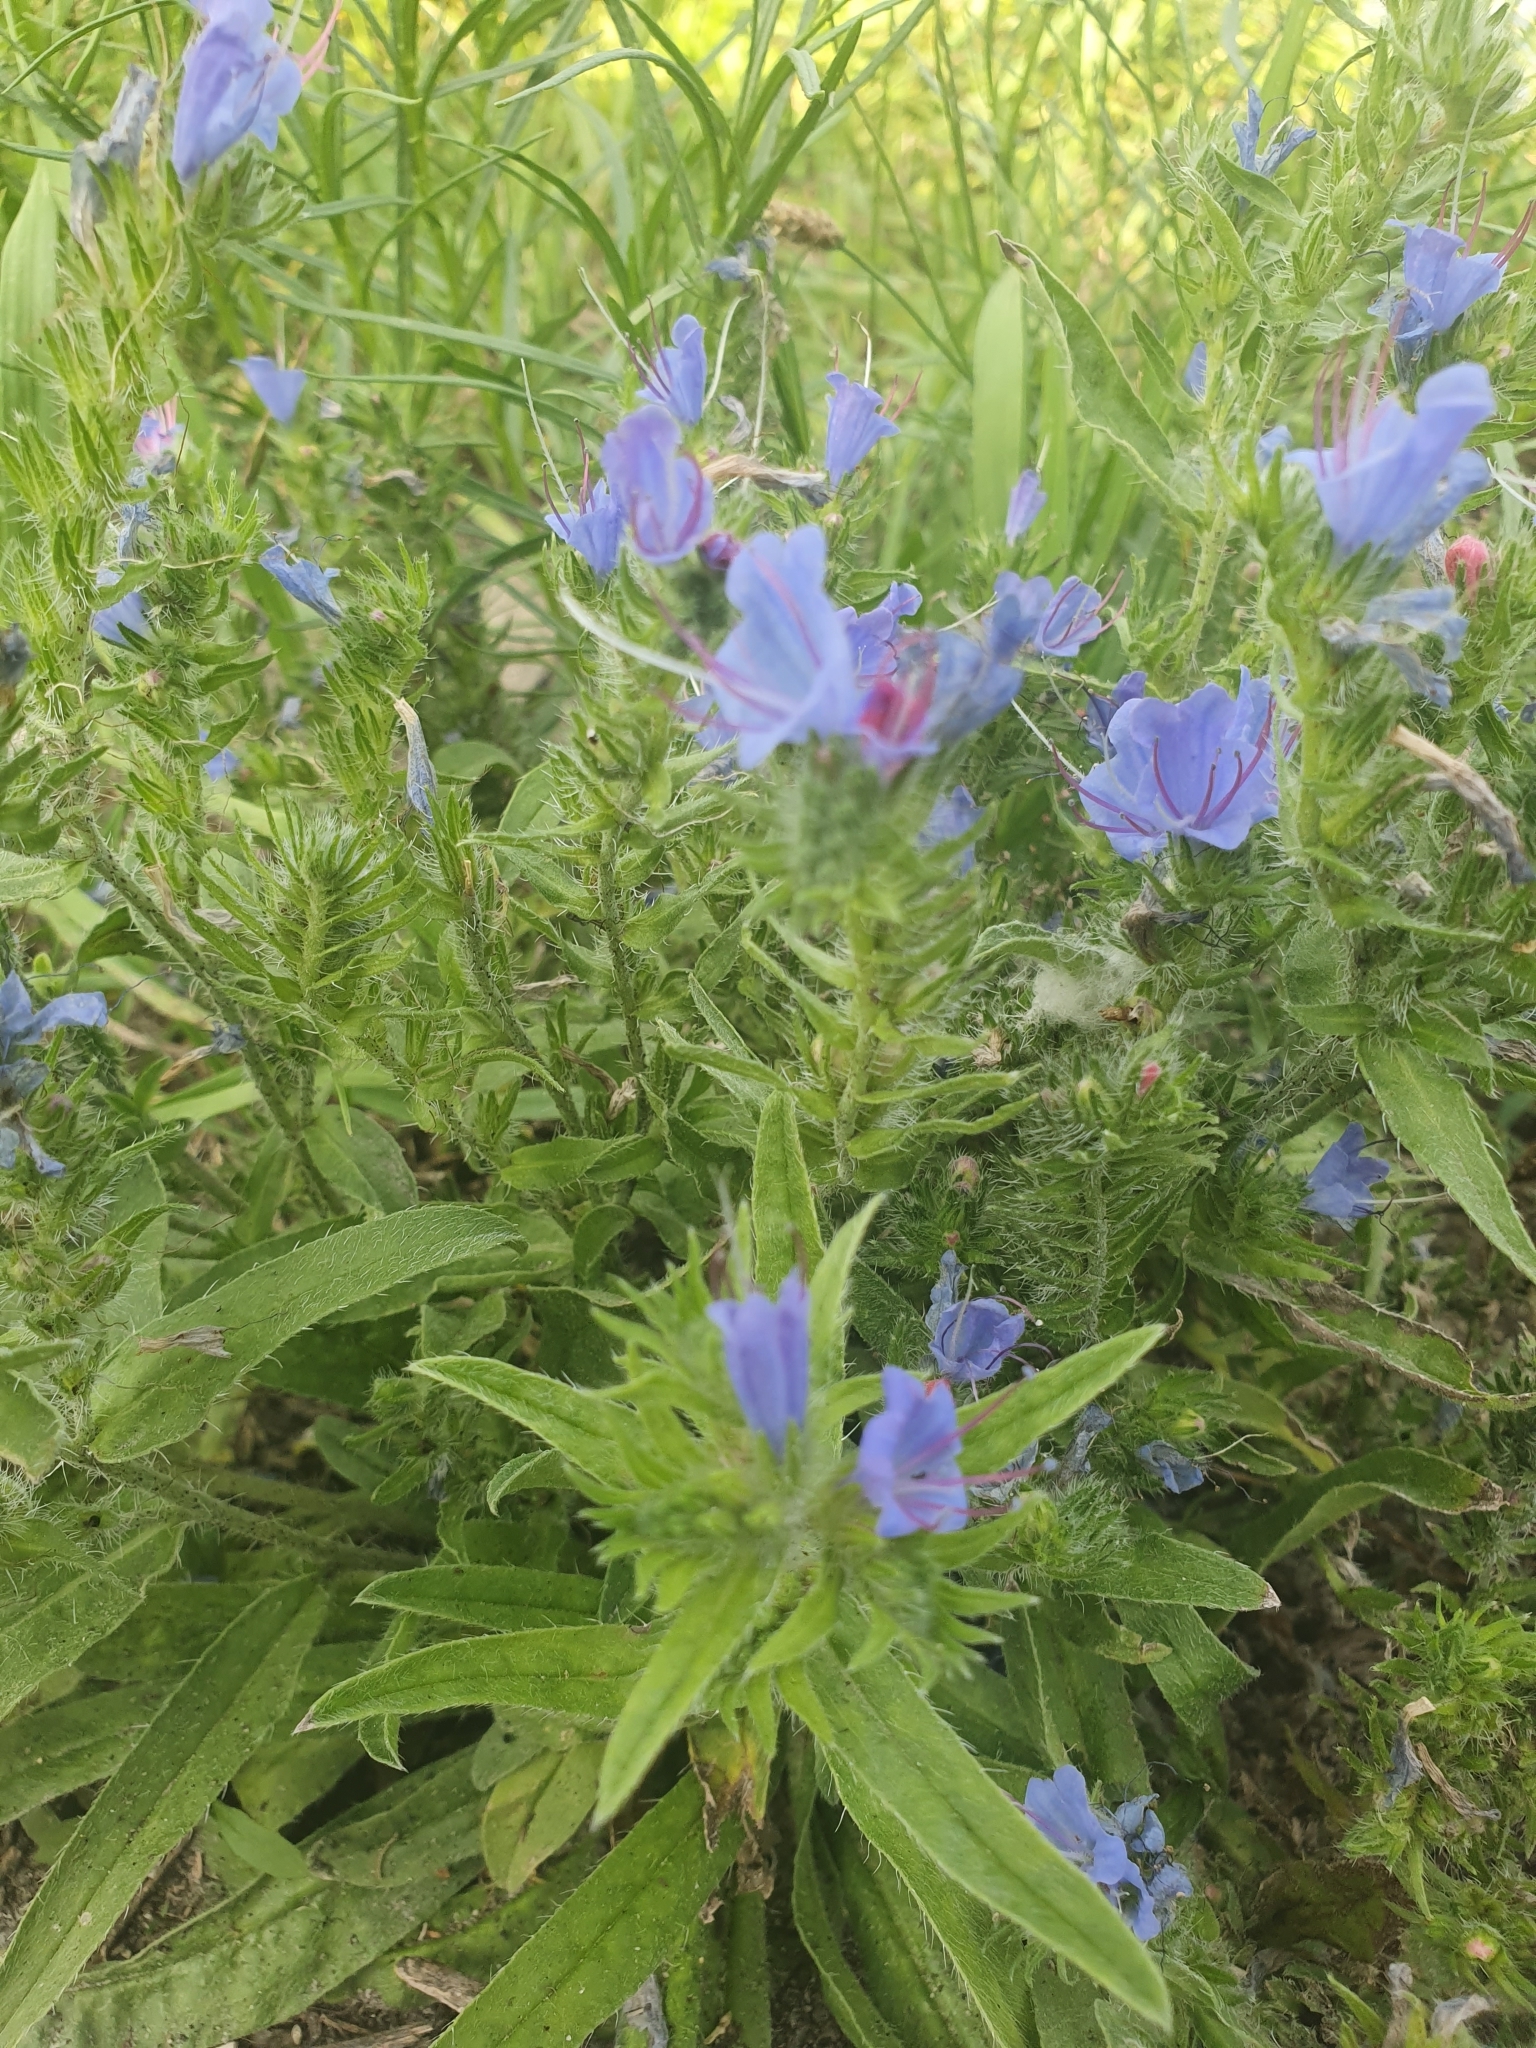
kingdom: Plantae
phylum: Tracheophyta
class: Magnoliopsida
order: Boraginales
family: Boraginaceae
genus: Echium
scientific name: Echium vulgare
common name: Common viper's bugloss
